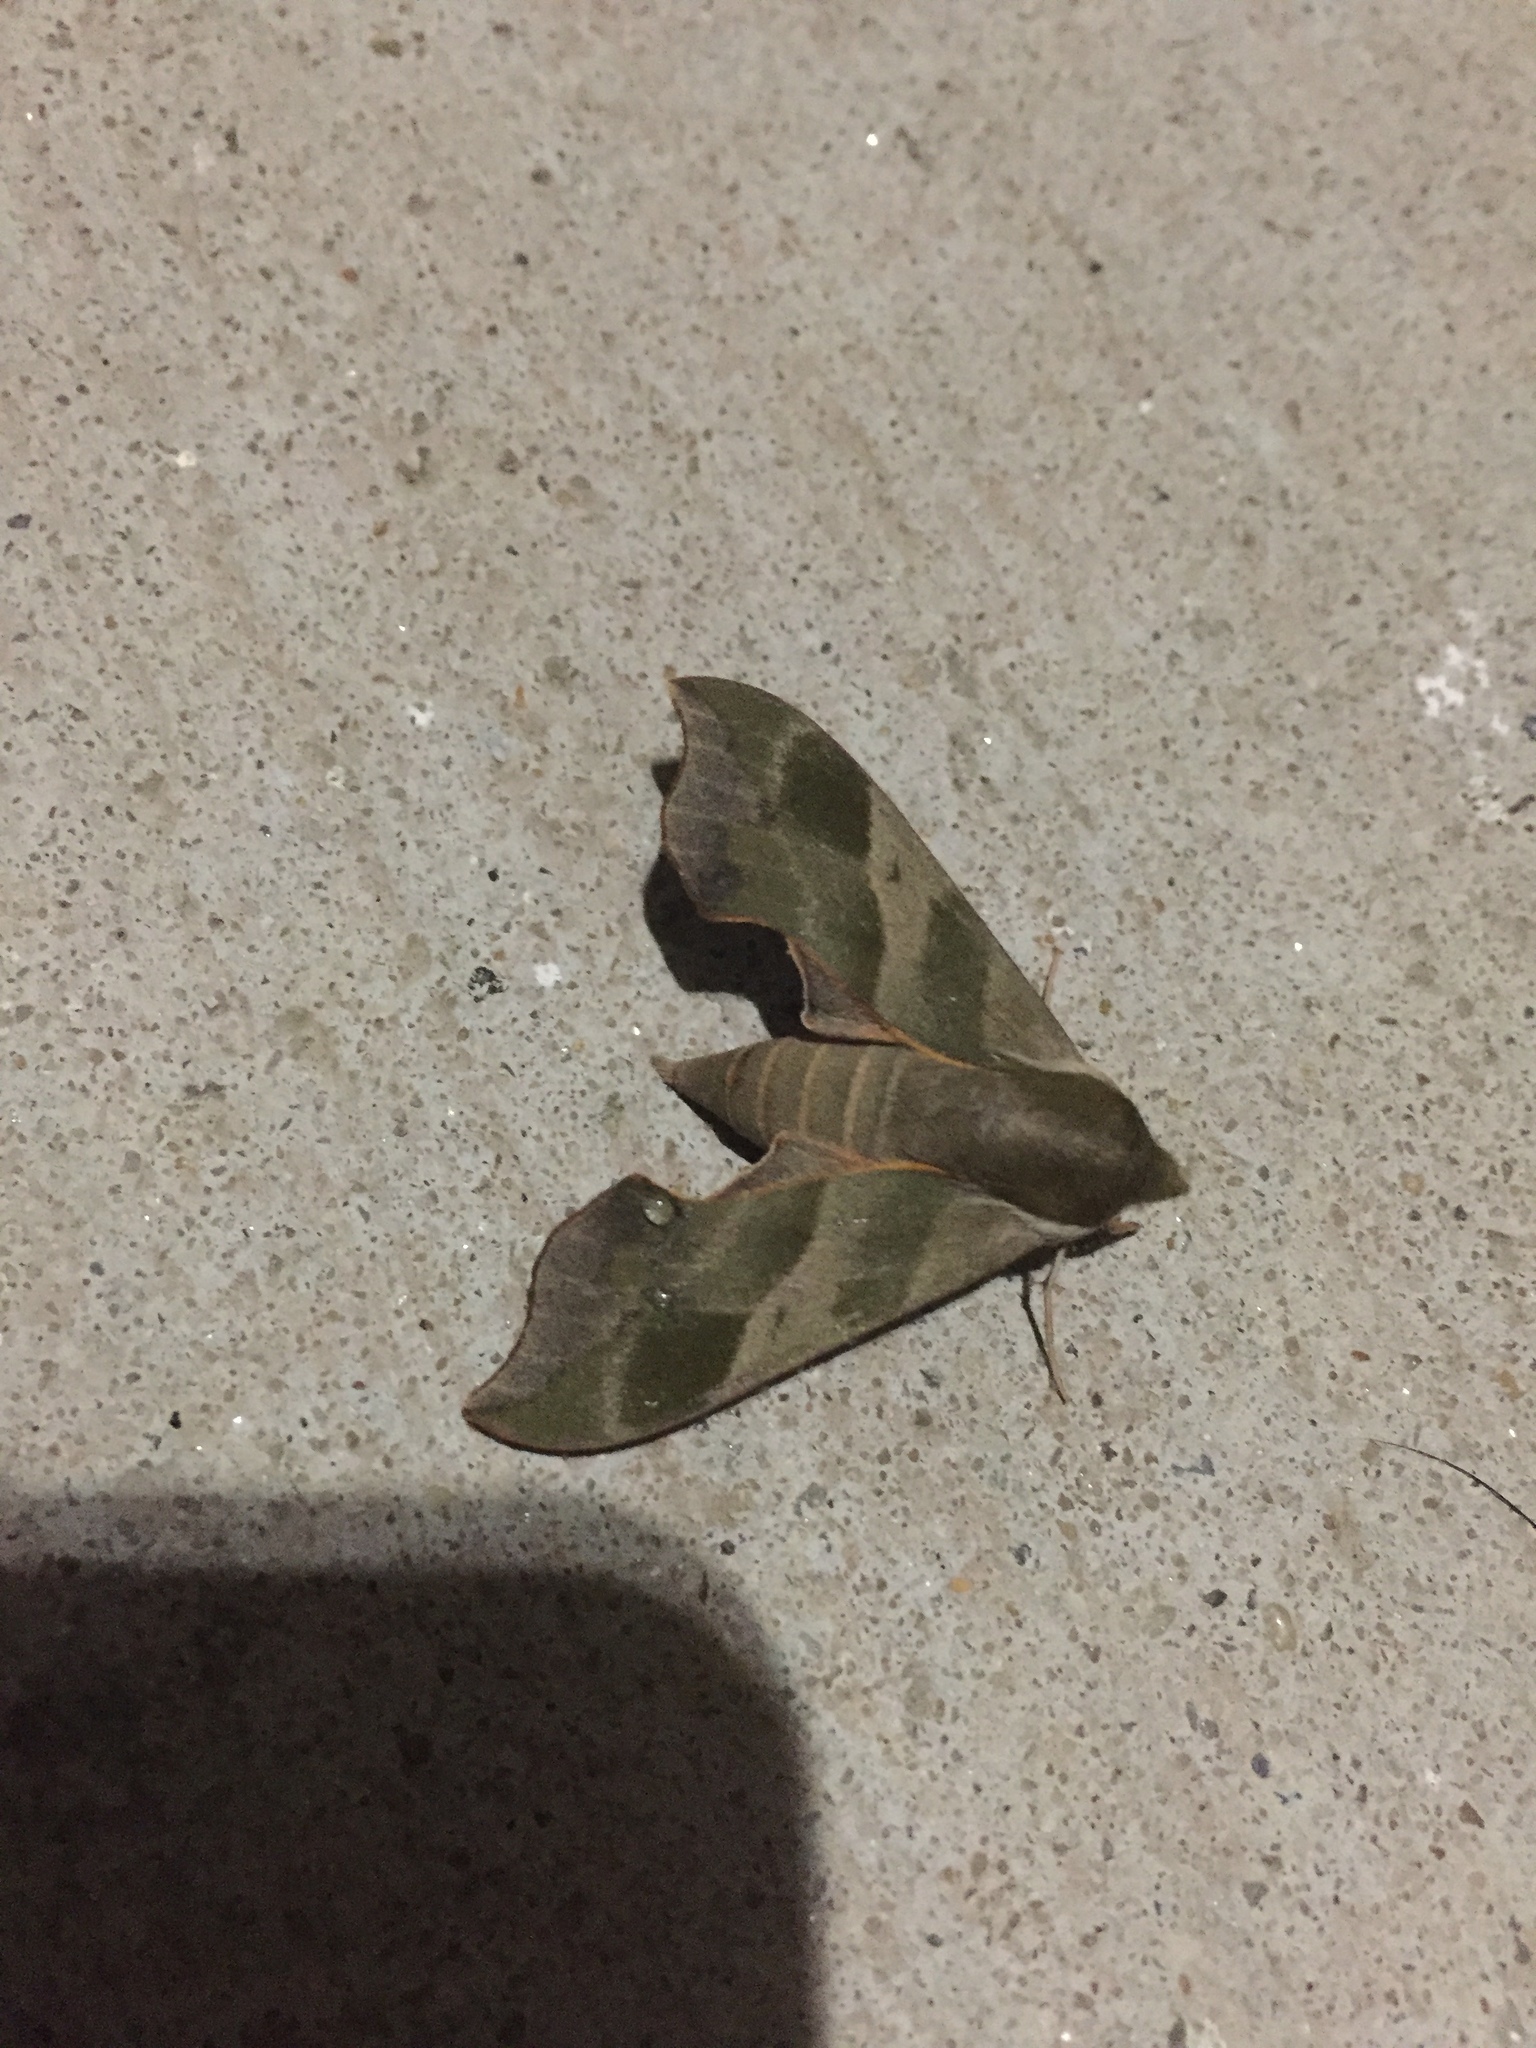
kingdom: Animalia
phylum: Arthropoda
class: Insecta
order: Lepidoptera
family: Sphingidae
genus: Darapsa
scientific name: Darapsa myron
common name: Hog sphinx
